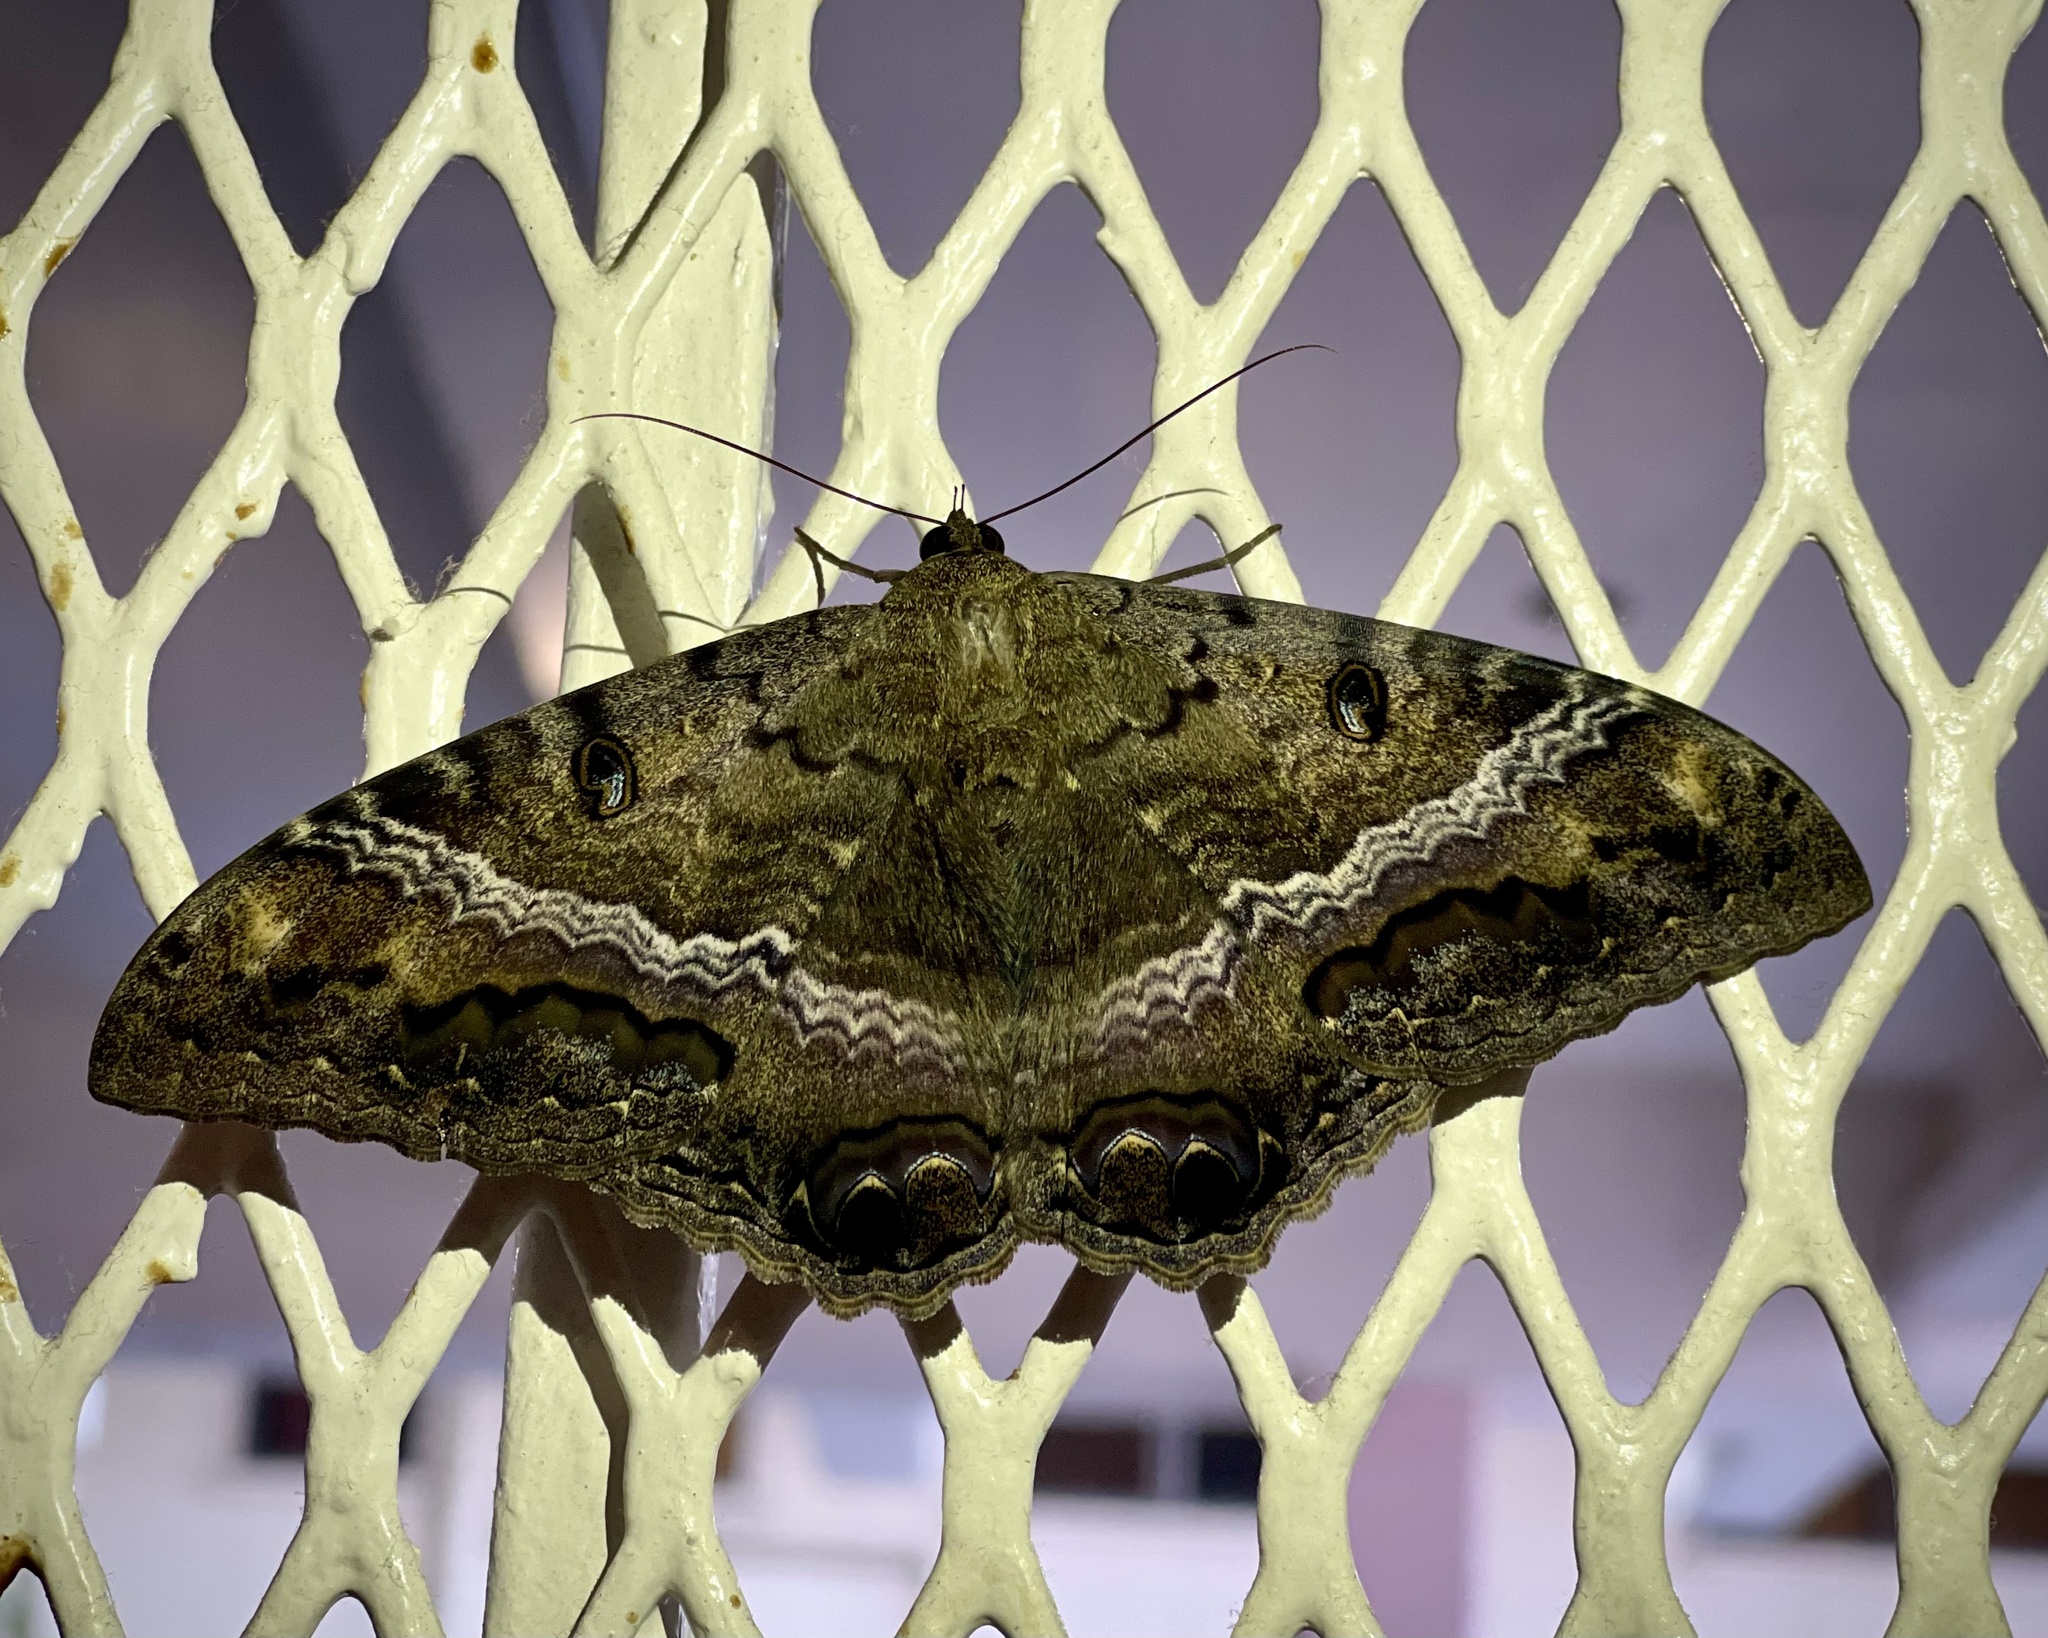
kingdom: Animalia
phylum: Arthropoda
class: Insecta
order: Lepidoptera
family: Erebidae
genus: Ascalapha
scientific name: Ascalapha odorata
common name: Black witch
